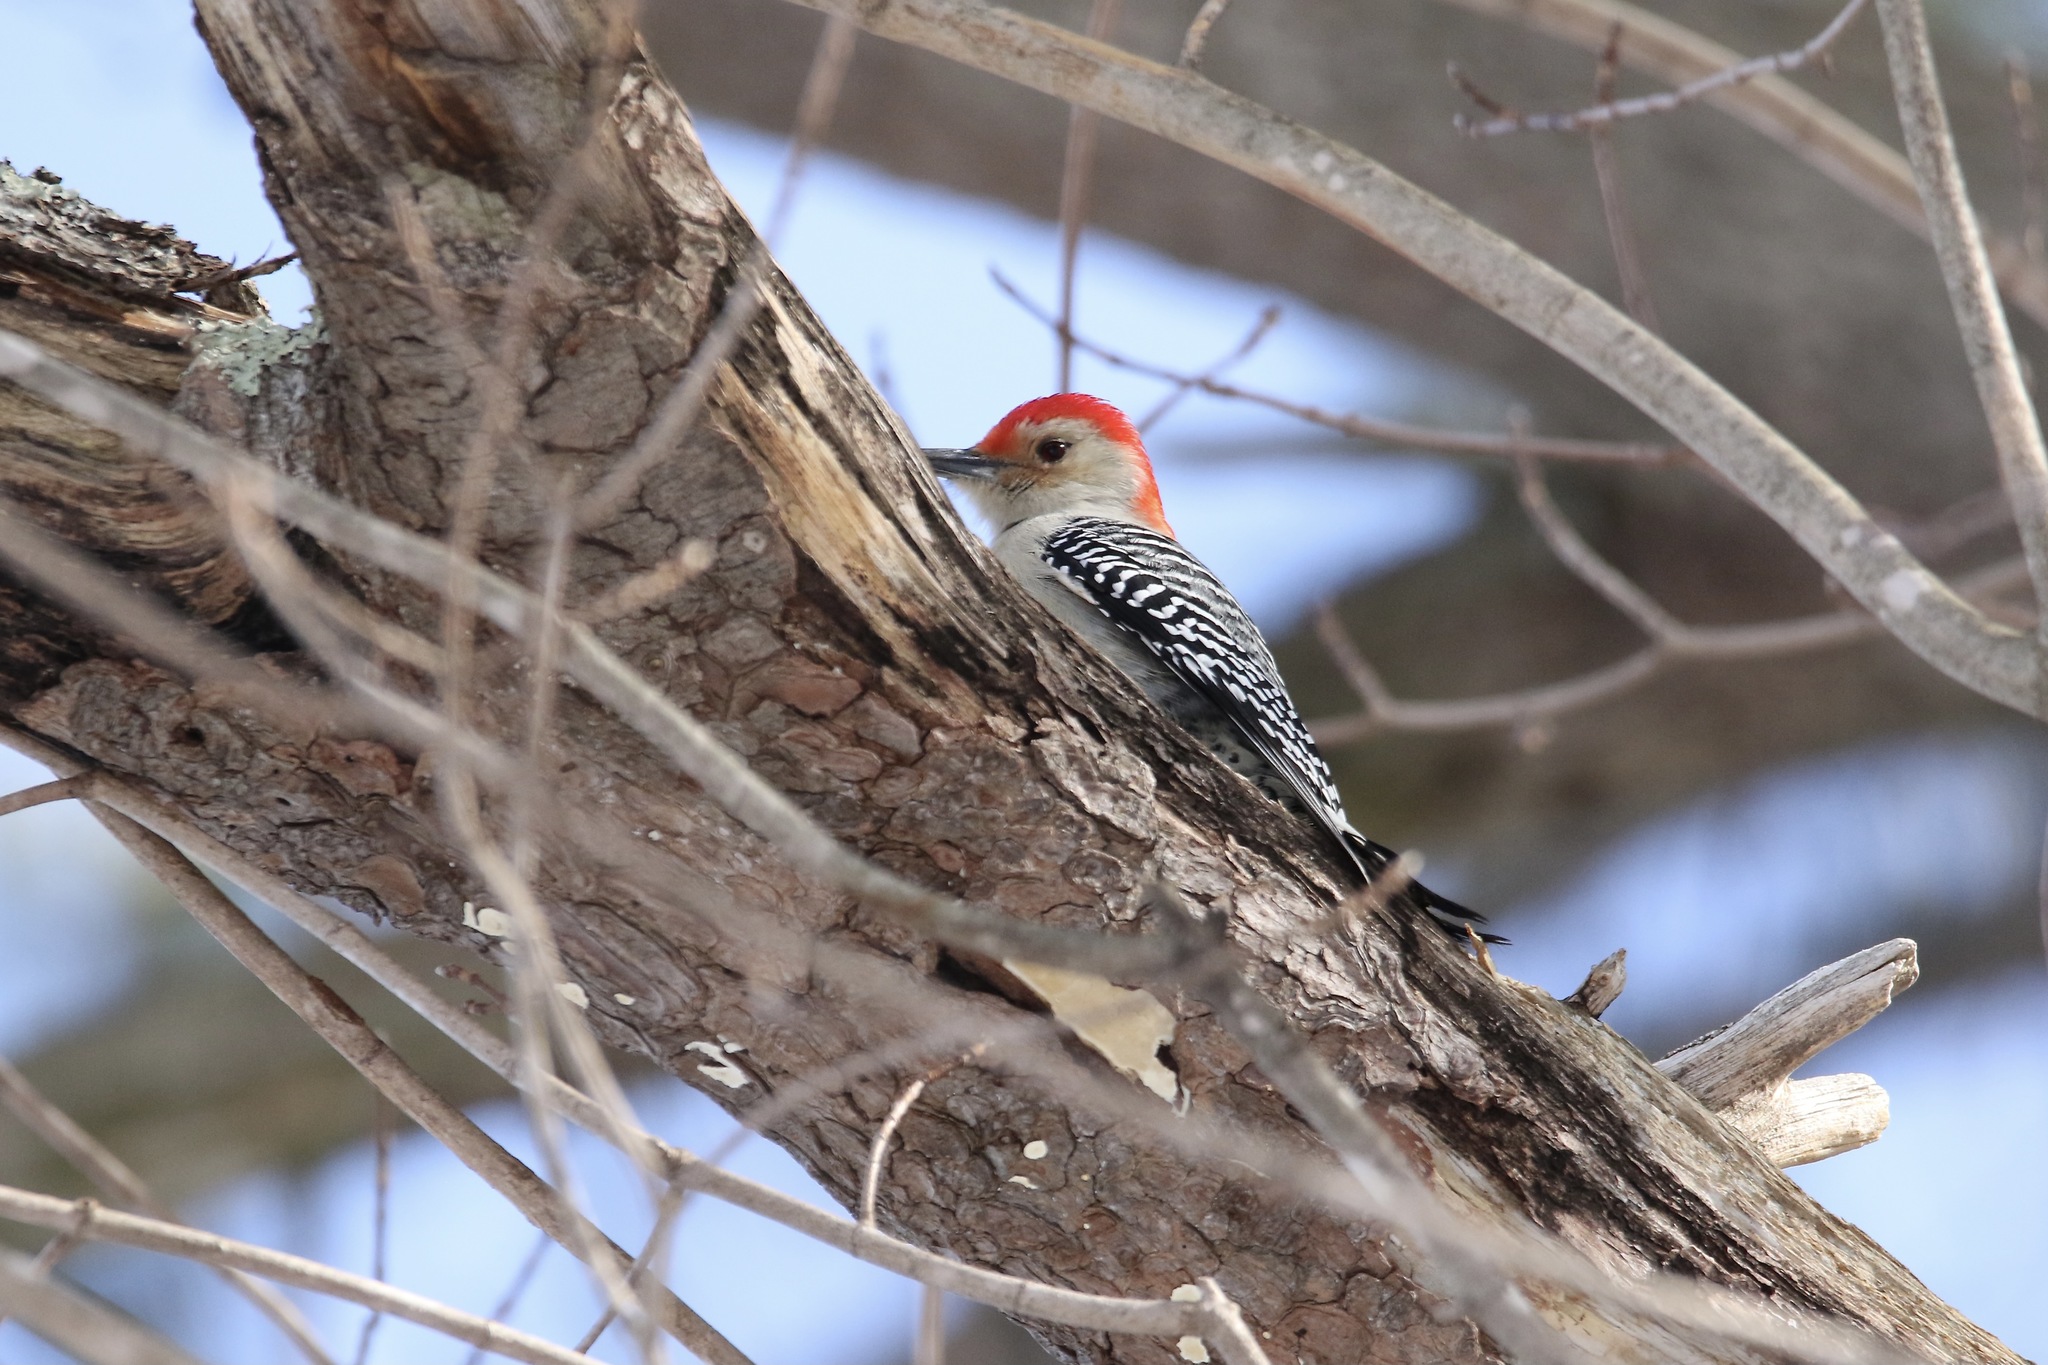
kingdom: Animalia
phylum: Chordata
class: Aves
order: Piciformes
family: Picidae
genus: Melanerpes
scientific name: Melanerpes carolinus
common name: Red-bellied woodpecker
